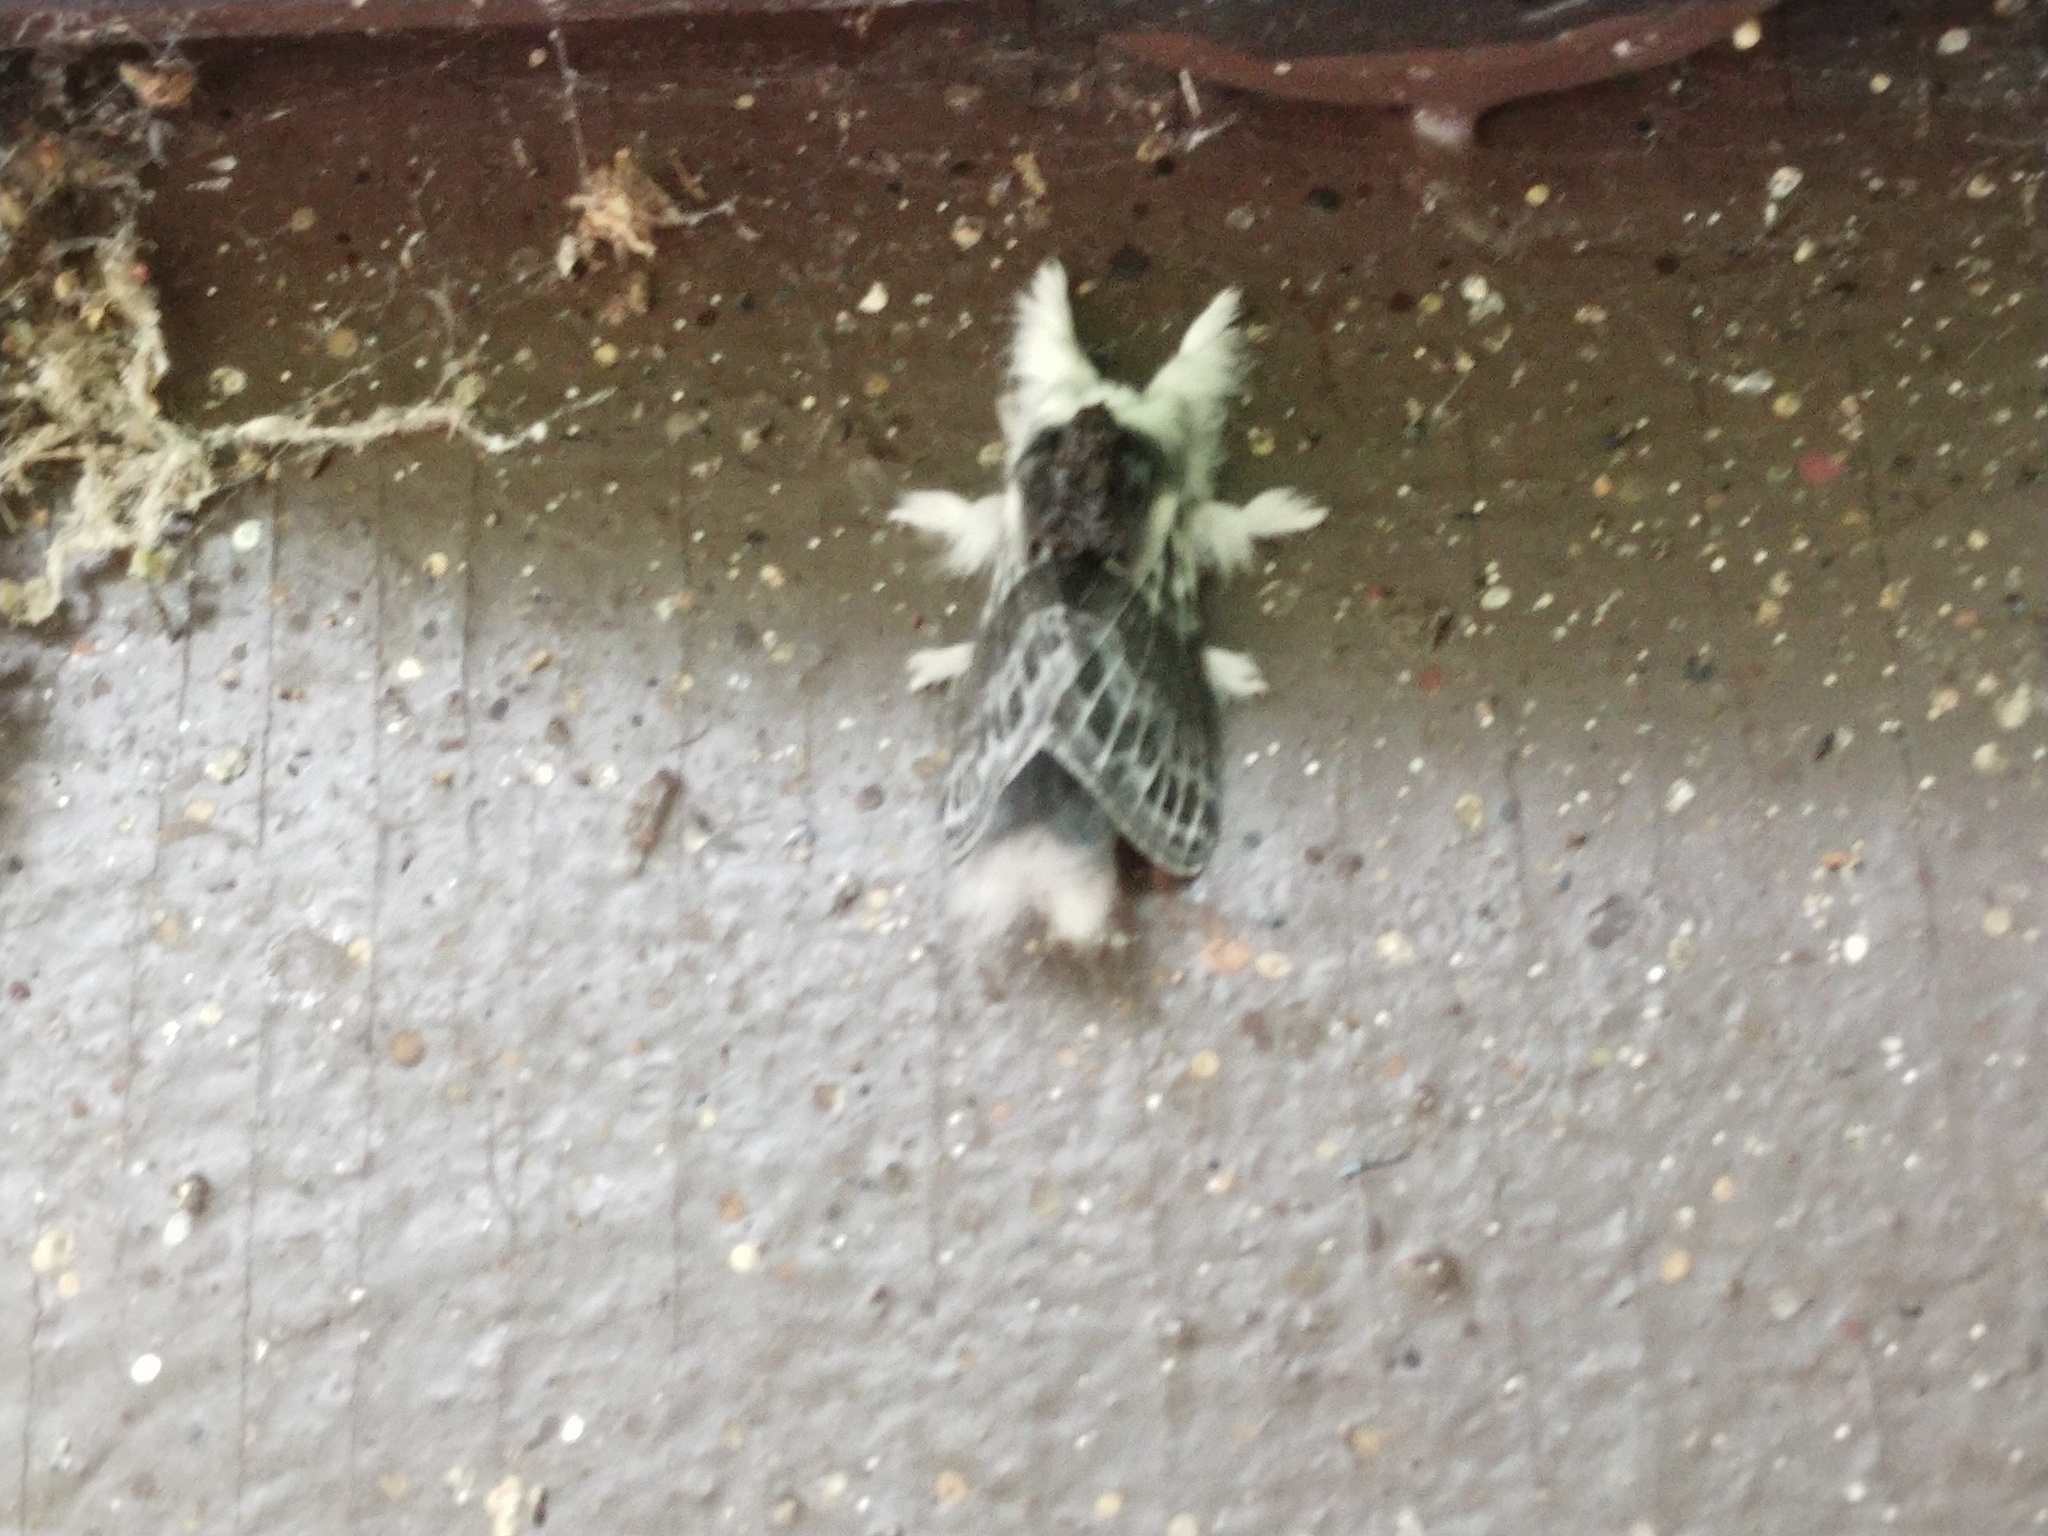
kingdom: Animalia
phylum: Arthropoda
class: Insecta
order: Lepidoptera
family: Lasiocampidae
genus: Tolype
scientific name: Tolype laricis
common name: Larch tolype moth
